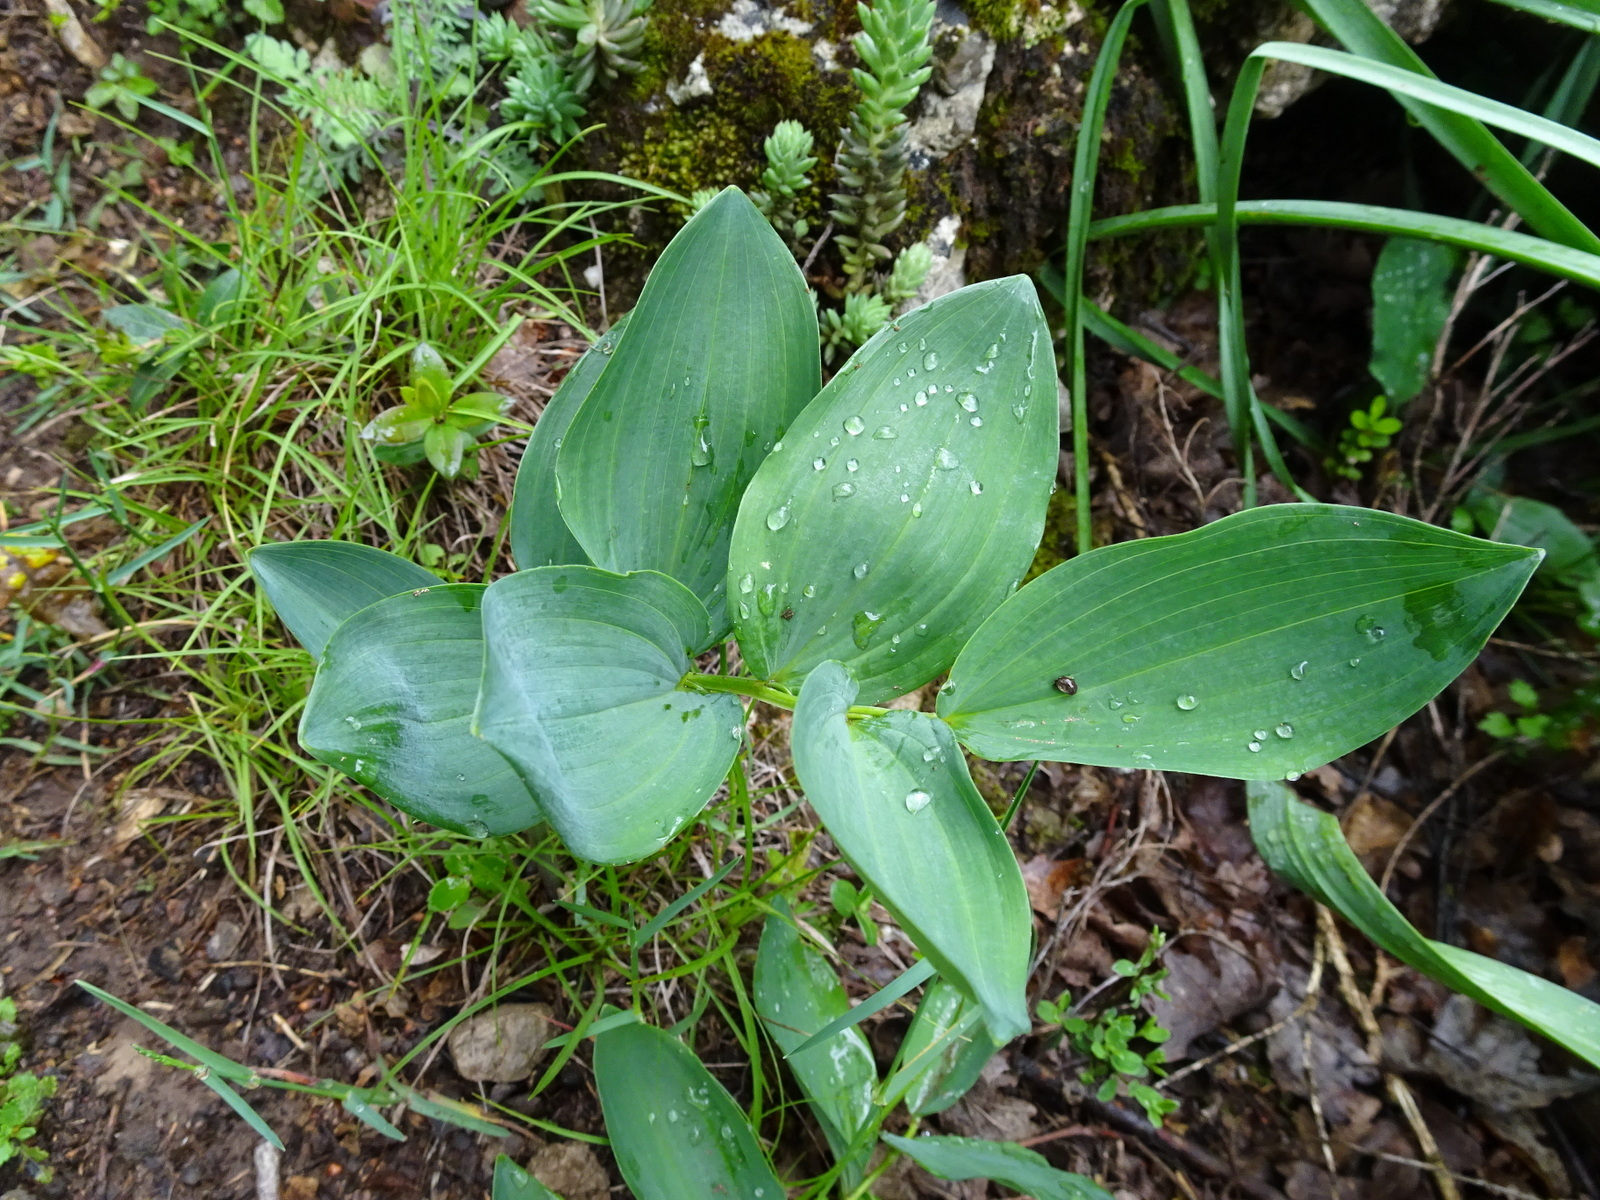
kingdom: Plantae
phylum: Tracheophyta
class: Liliopsida
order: Asparagales
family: Asparagaceae
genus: Polygonatum
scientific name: Polygonatum odoratum
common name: Angular solomon's-seal
